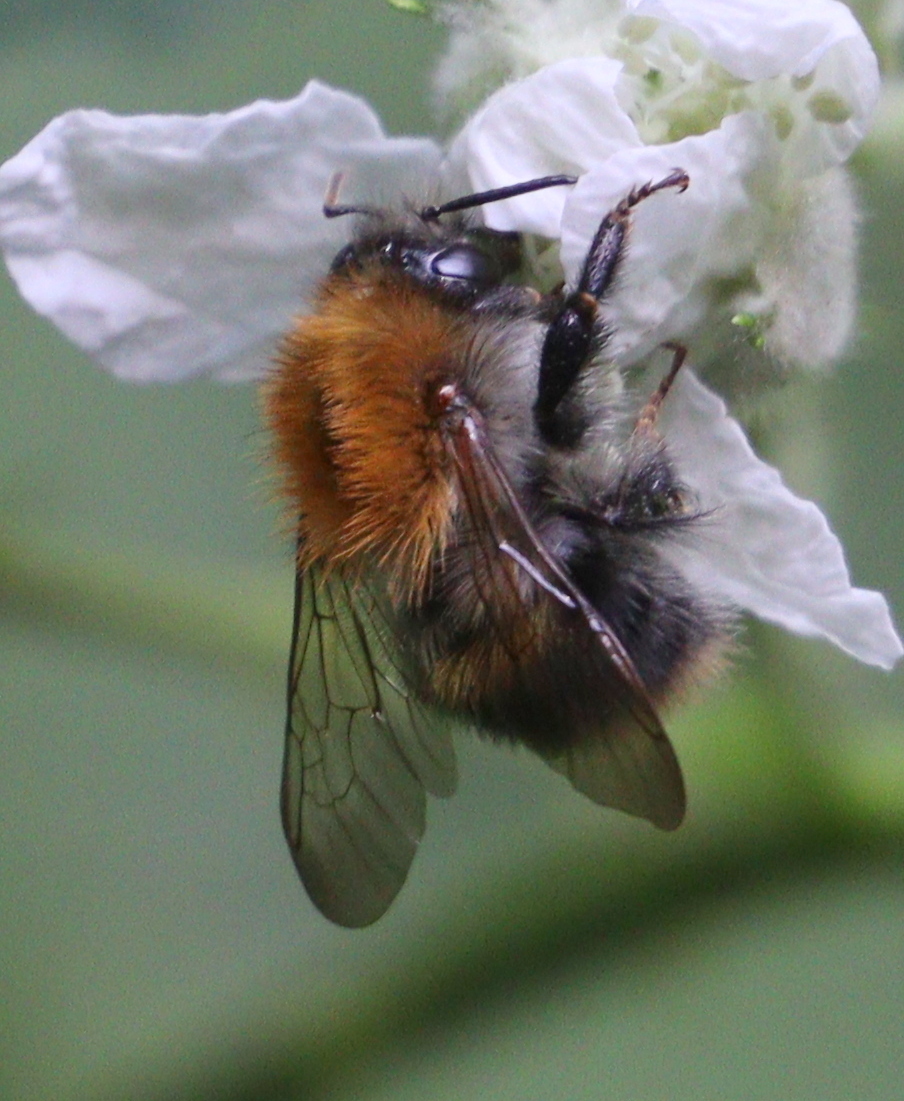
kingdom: Animalia
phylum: Arthropoda
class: Insecta
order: Hymenoptera
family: Apidae
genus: Bombus
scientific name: Bombus pascuorum
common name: Common carder bee
